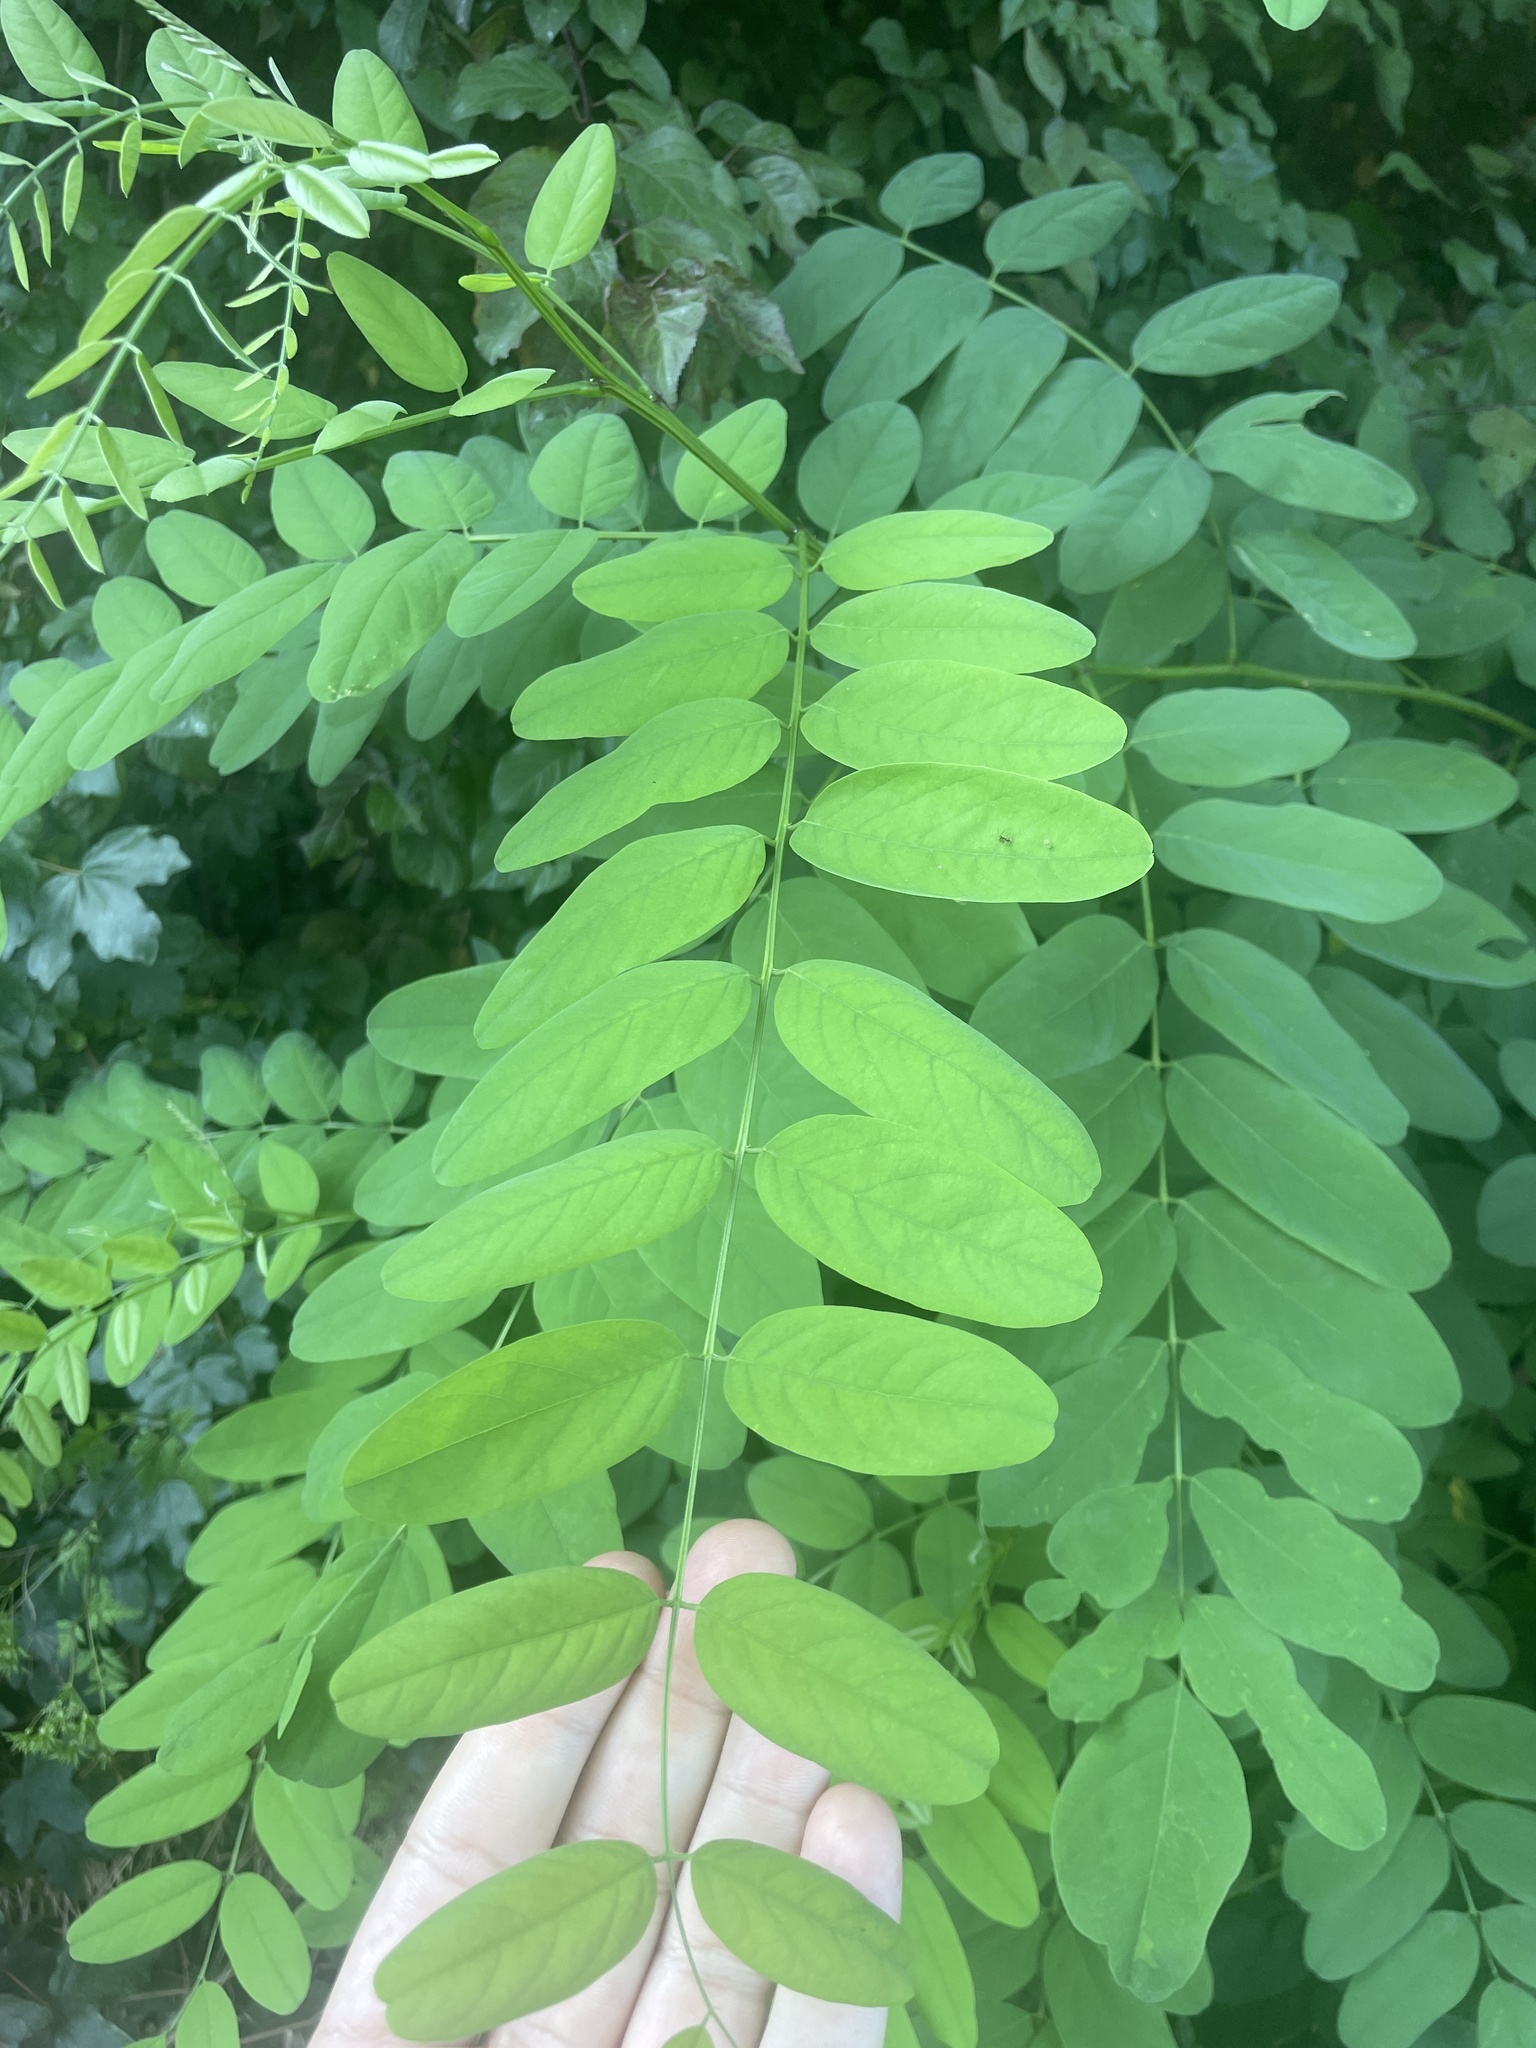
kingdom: Plantae
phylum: Tracheophyta
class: Magnoliopsida
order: Fabales
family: Fabaceae
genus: Robinia
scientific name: Robinia pseudoacacia
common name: Black locust
